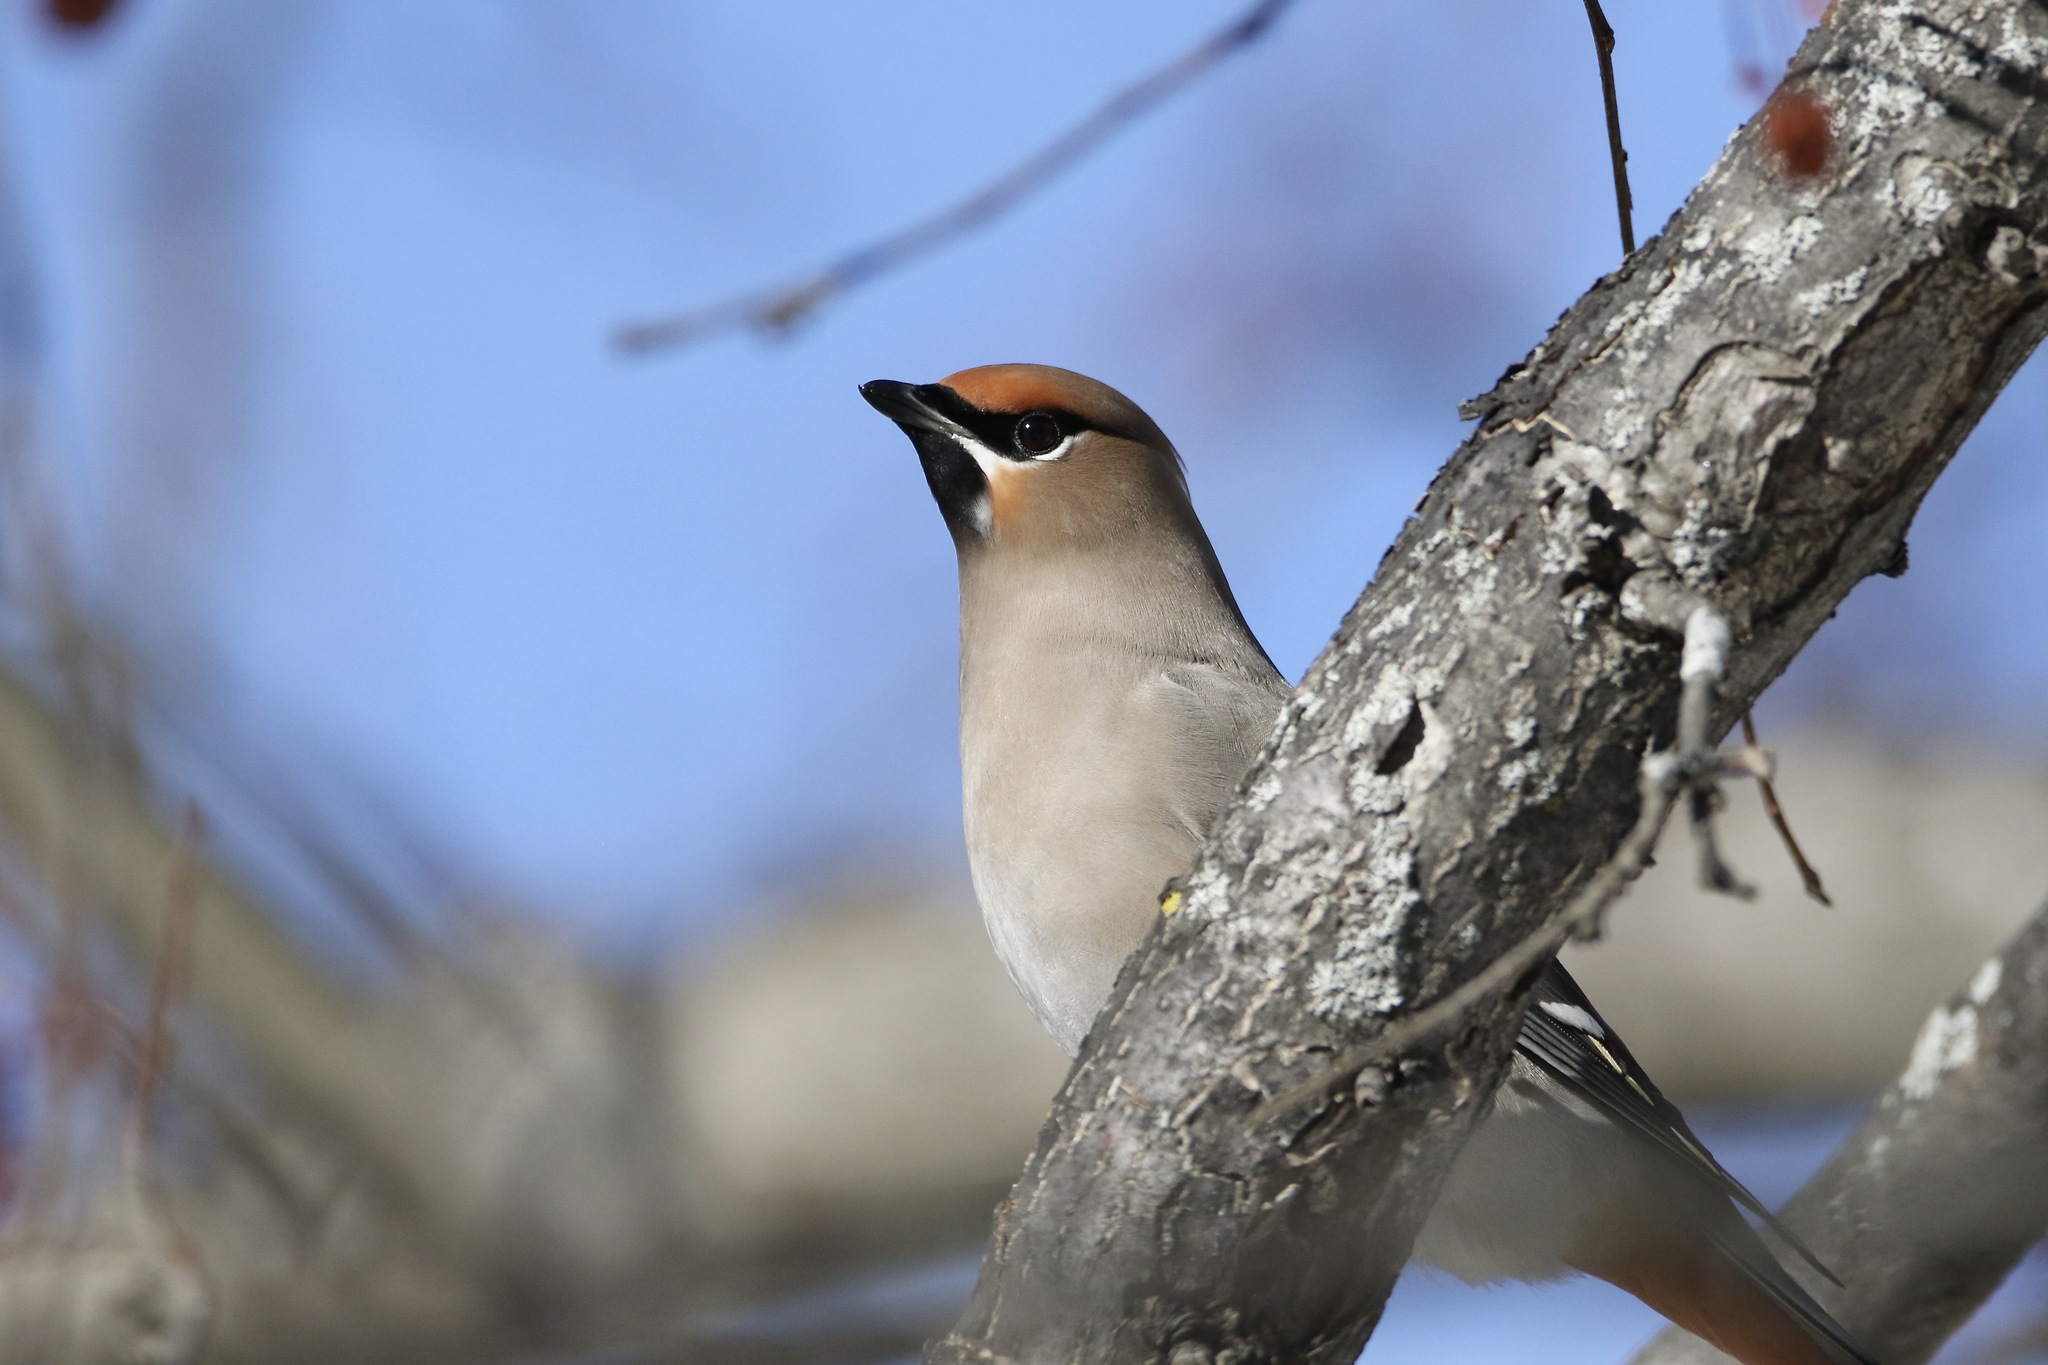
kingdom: Animalia
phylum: Chordata
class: Aves
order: Passeriformes
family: Bombycillidae
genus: Bombycilla
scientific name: Bombycilla garrulus
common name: Bohemian waxwing
